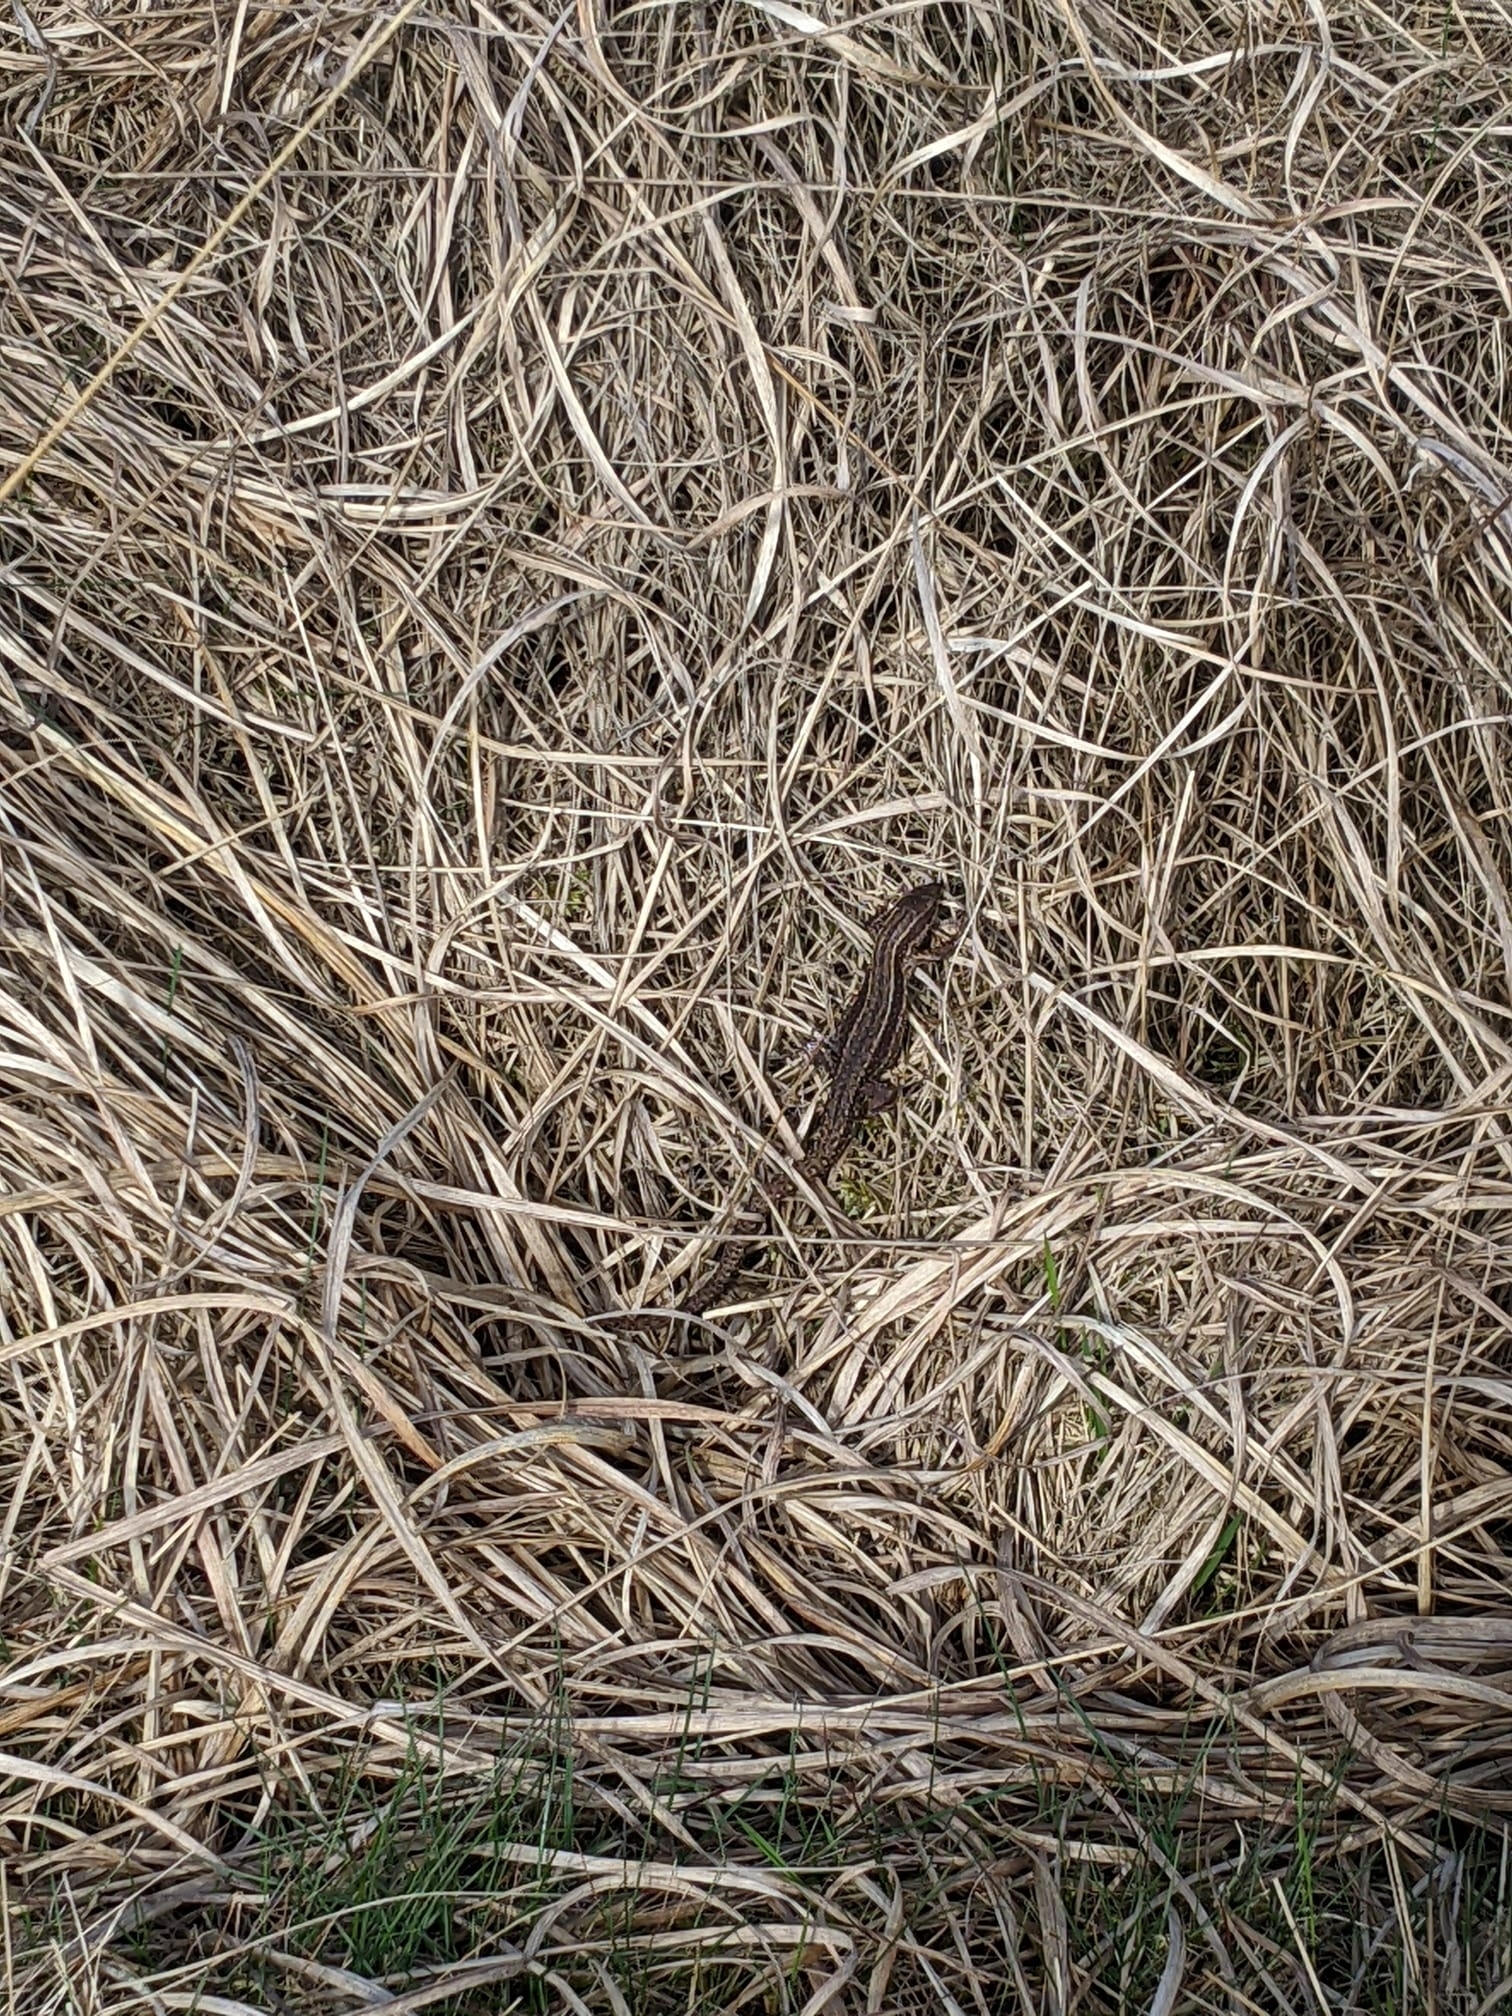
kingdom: Animalia
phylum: Chordata
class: Squamata
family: Lacertidae
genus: Zootoca
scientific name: Zootoca vivipara
